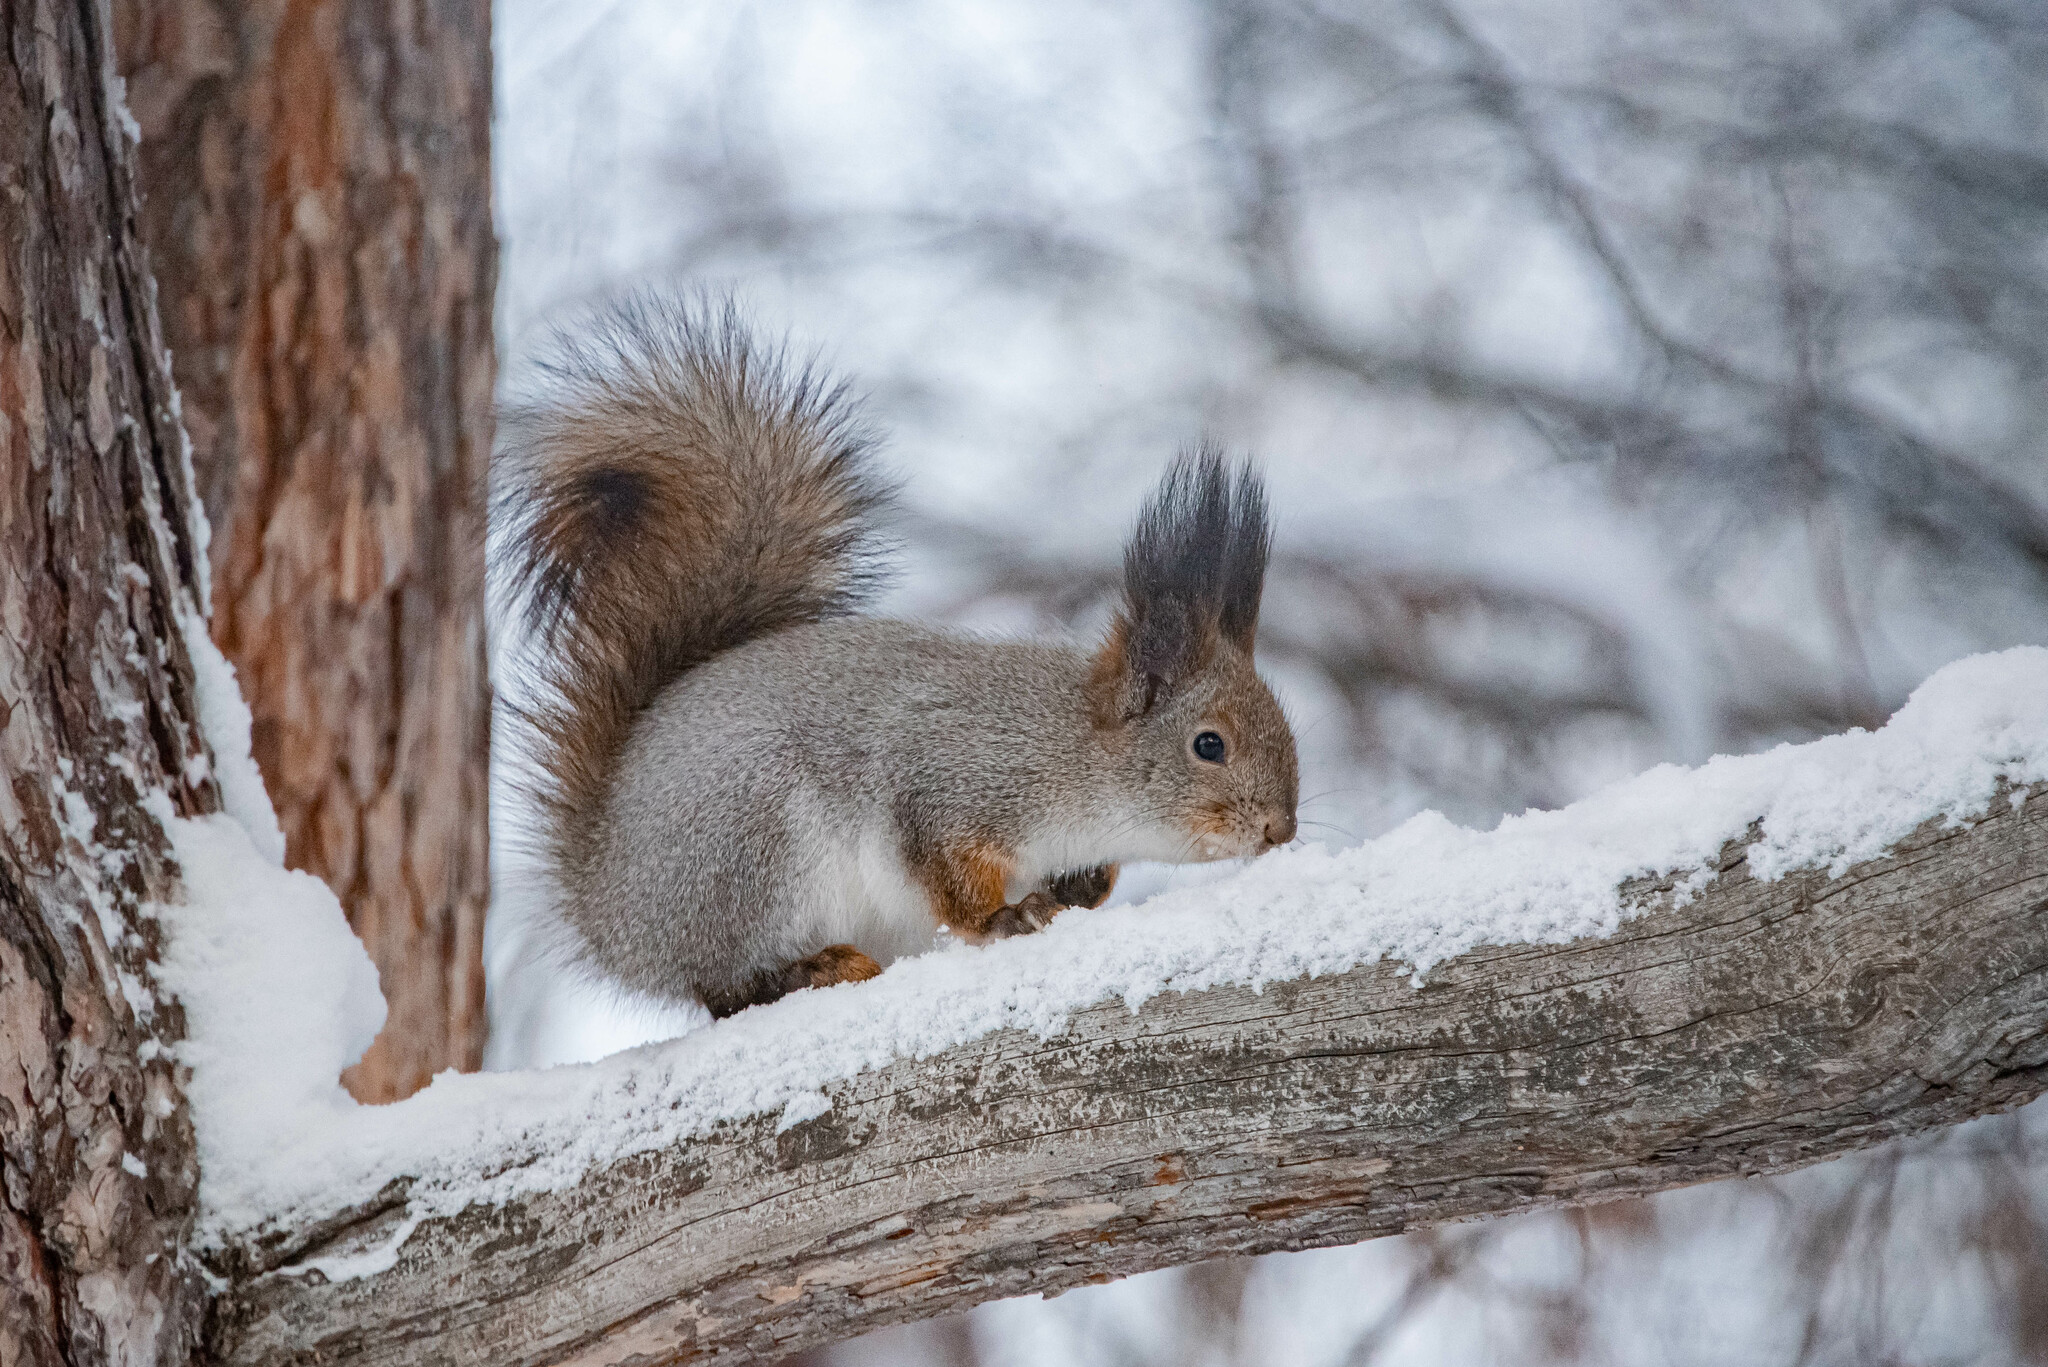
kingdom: Animalia
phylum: Chordata
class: Mammalia
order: Rodentia
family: Sciuridae
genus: Sciurus
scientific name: Sciurus vulgaris
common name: Eurasian red squirrel
